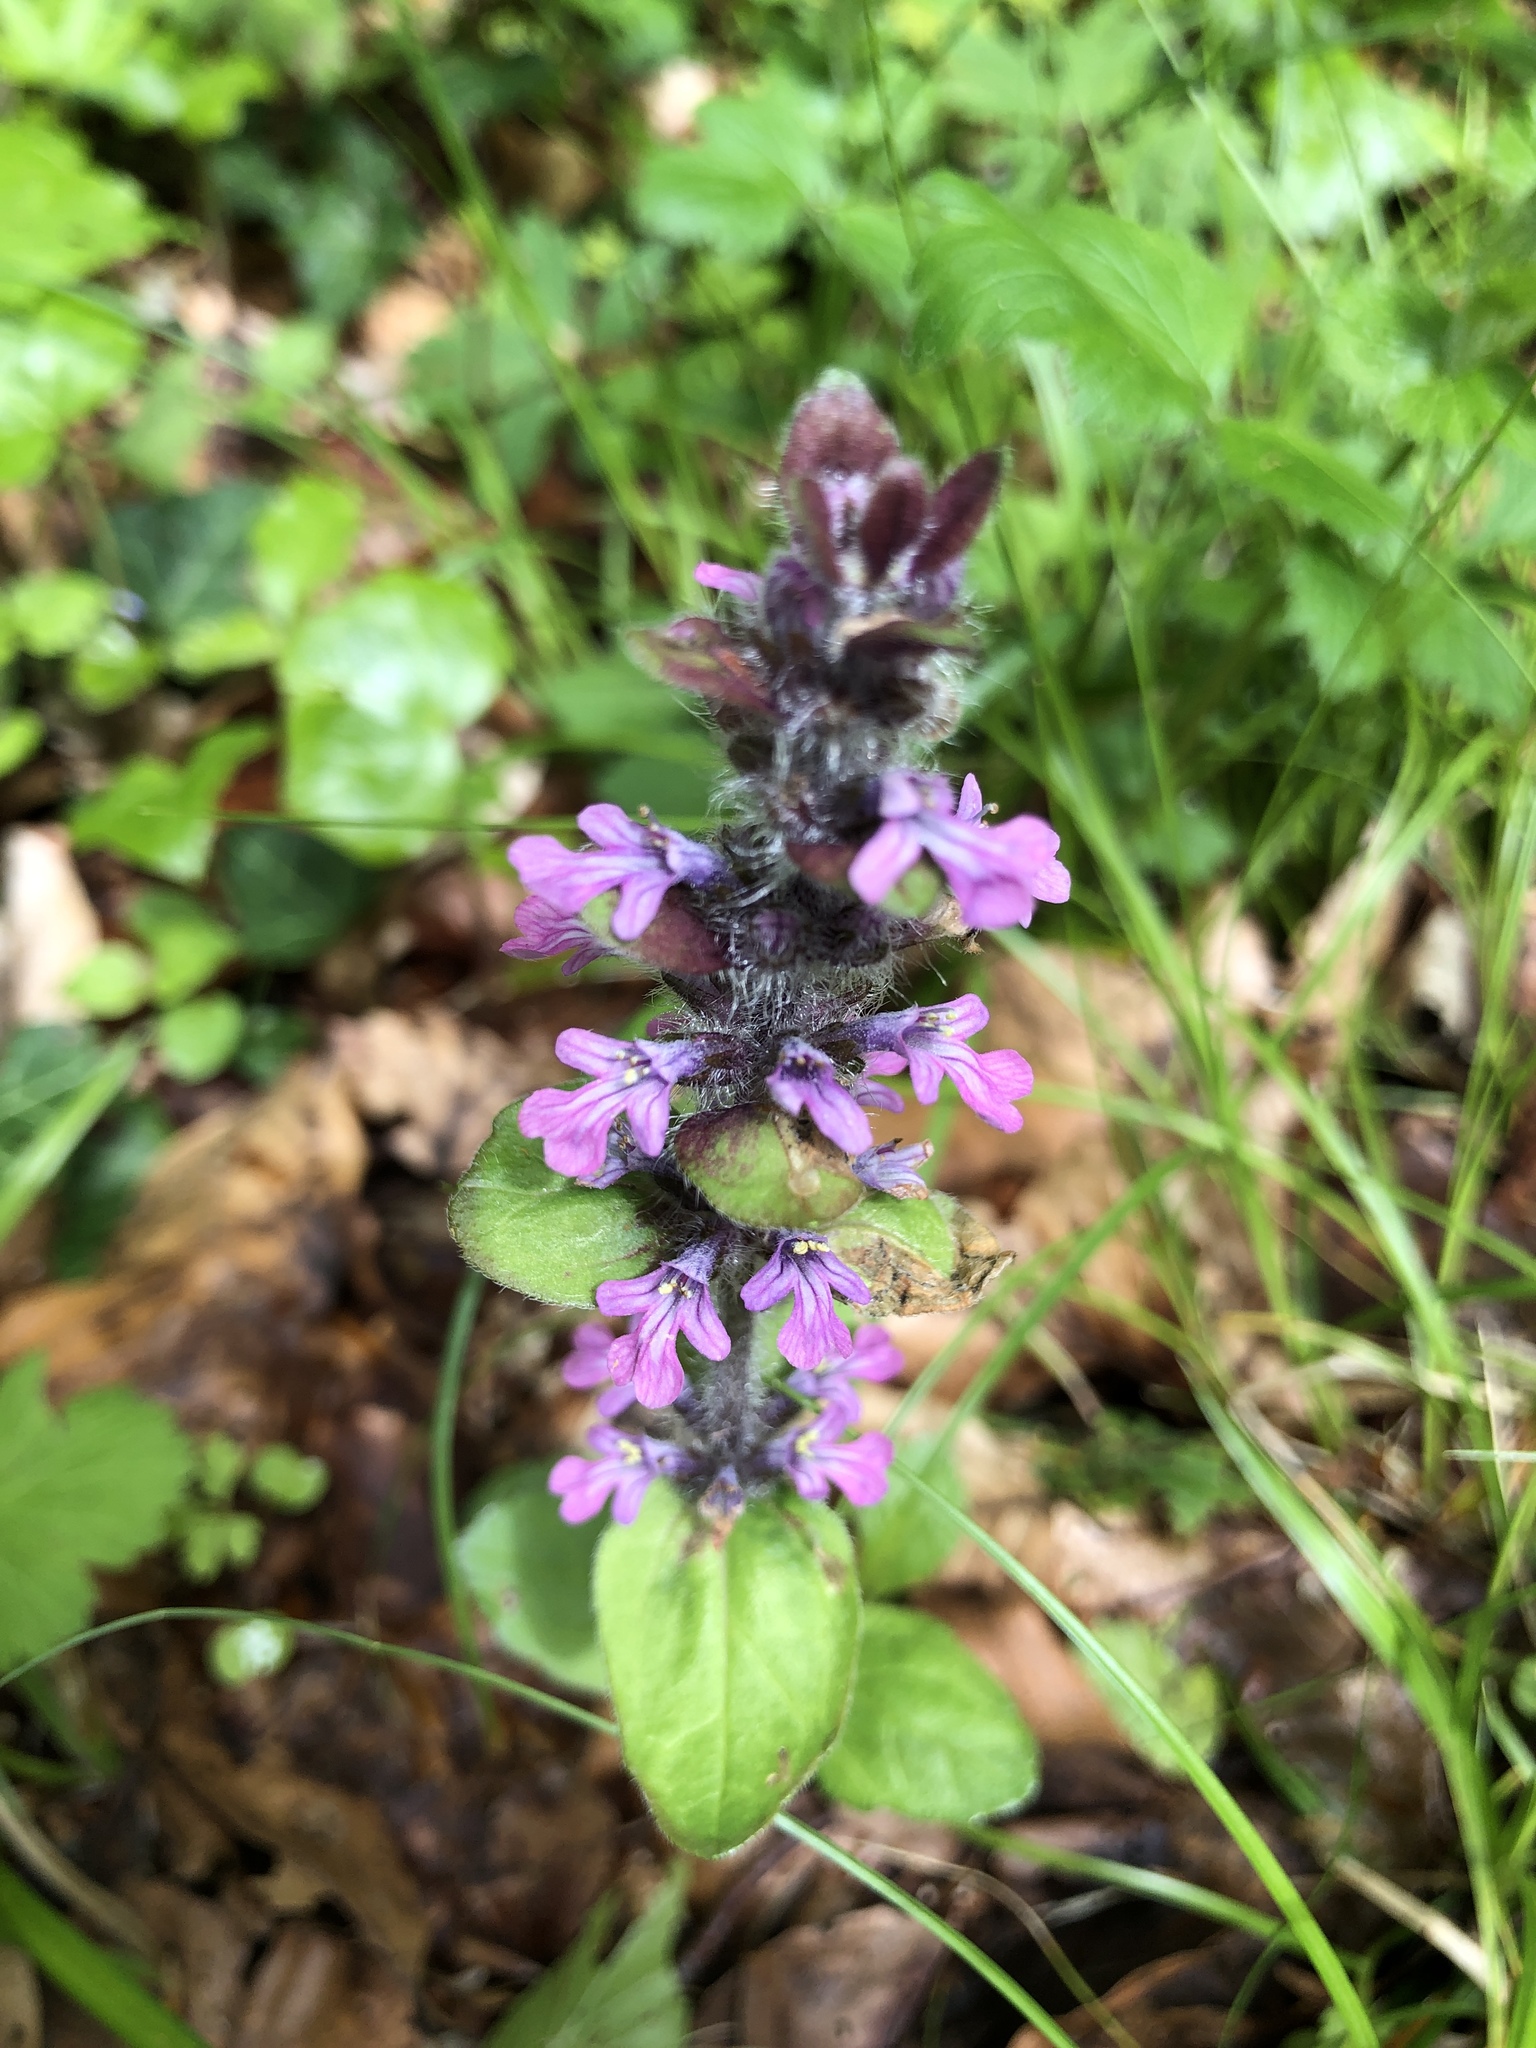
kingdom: Plantae
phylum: Tracheophyta
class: Magnoliopsida
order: Lamiales
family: Lamiaceae
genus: Ajuga
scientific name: Ajuga reptans
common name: Bugle
